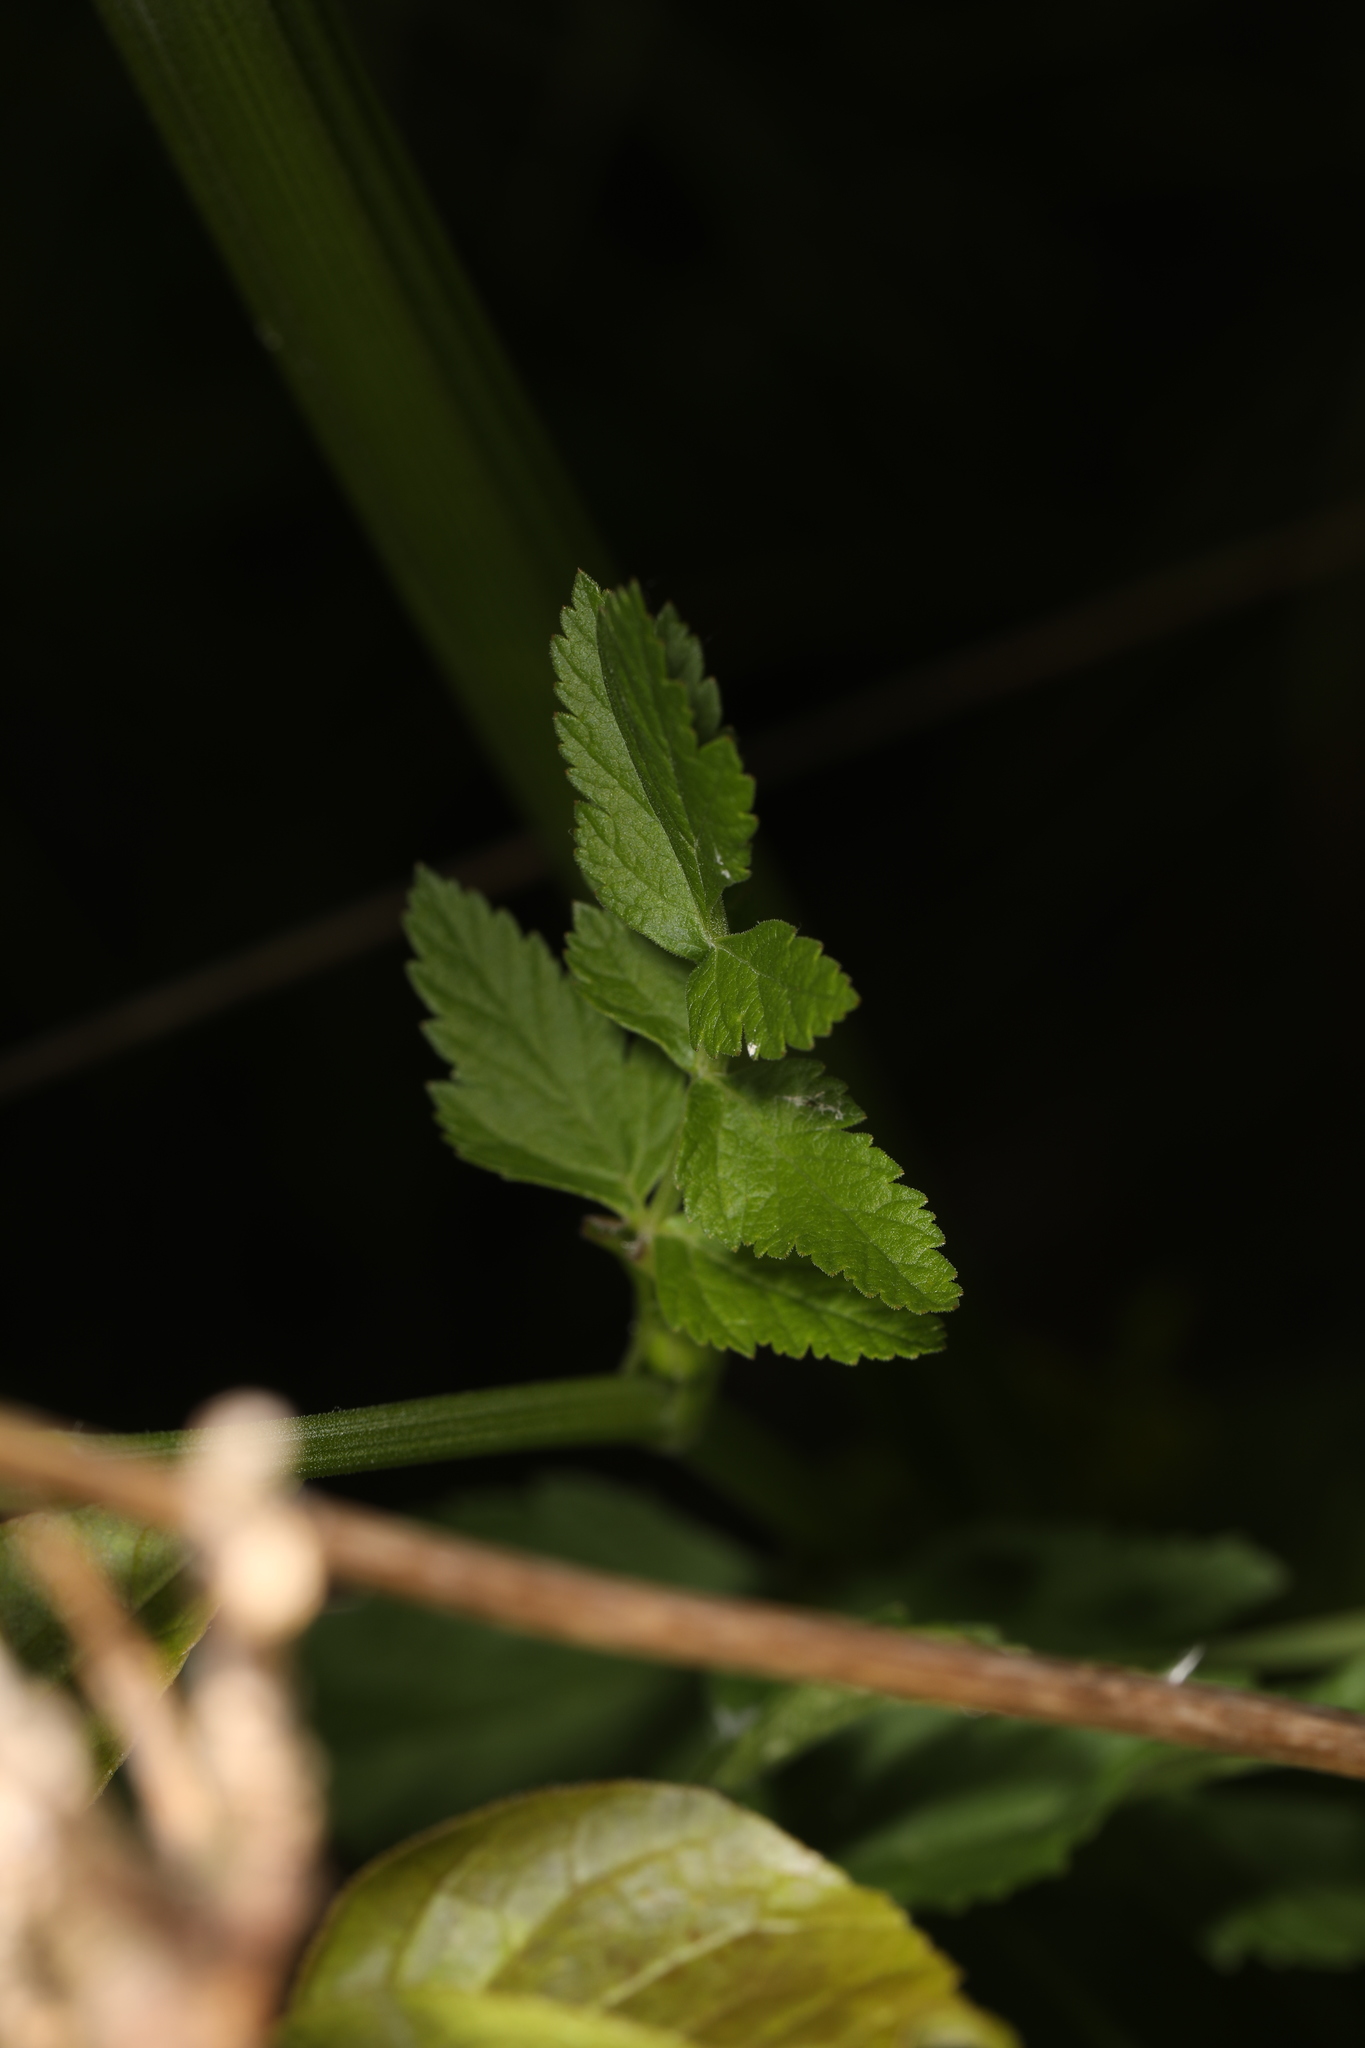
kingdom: Plantae
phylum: Tracheophyta
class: Magnoliopsida
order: Apiales
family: Apiaceae
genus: Pastinaca
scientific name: Pastinaca sativa
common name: Wild parsnip
